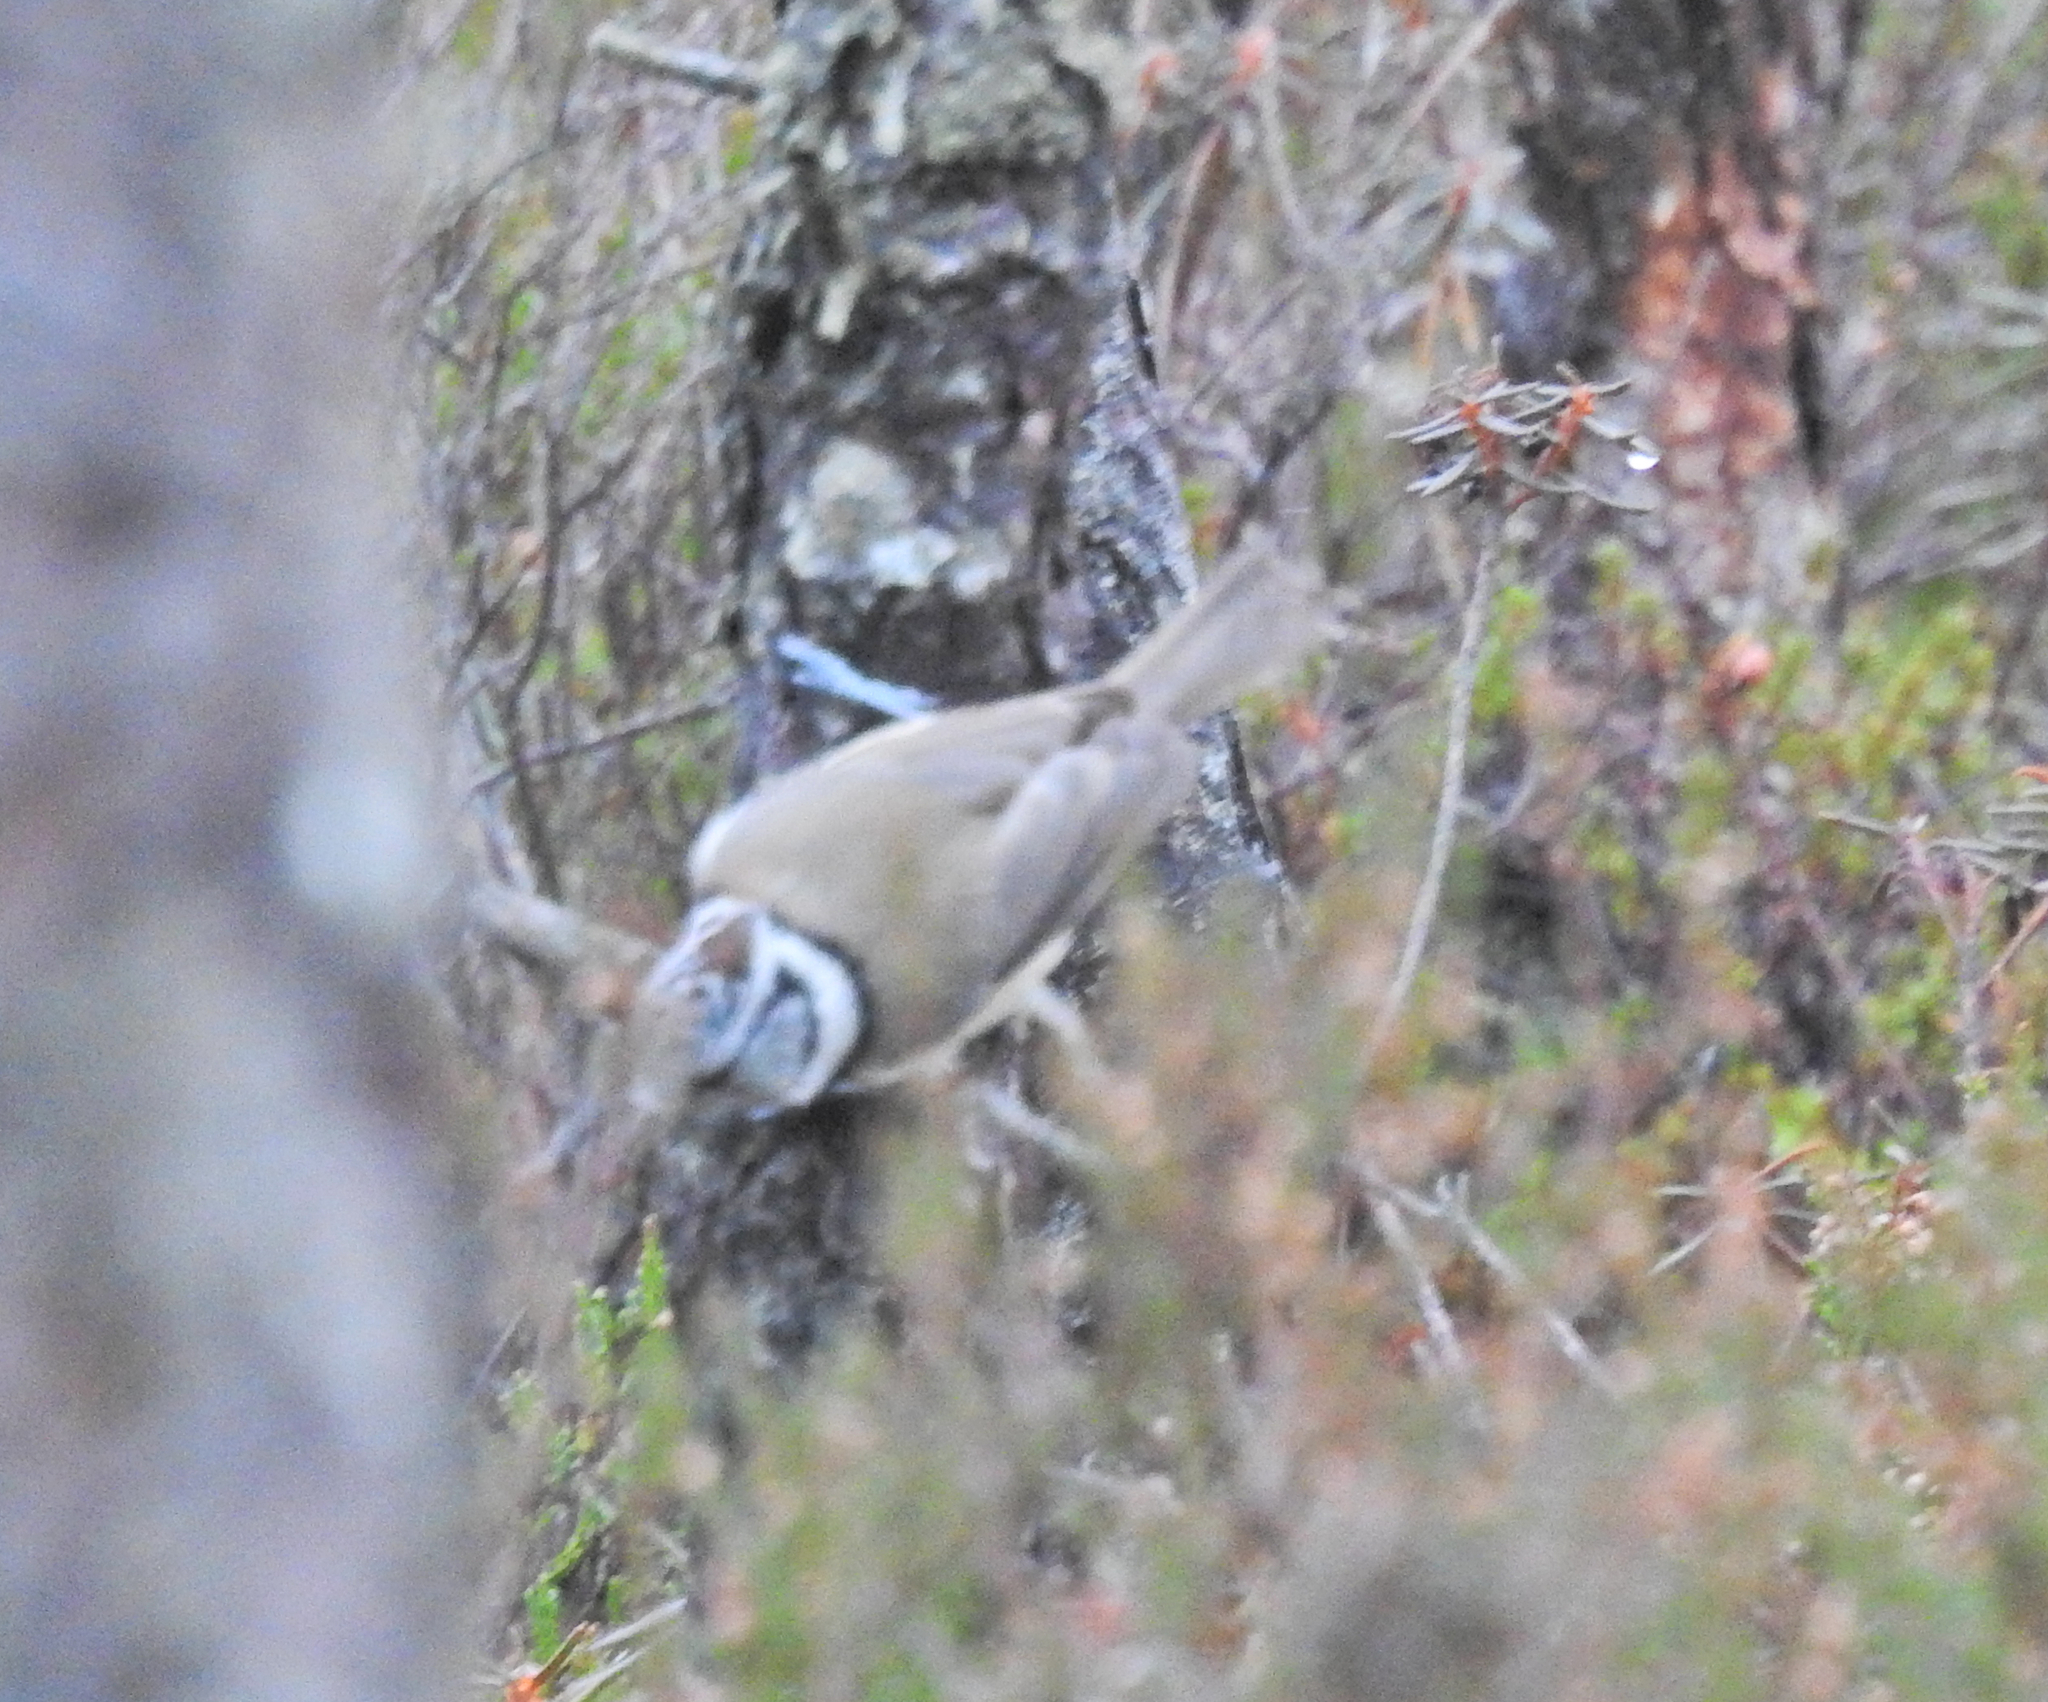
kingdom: Animalia
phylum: Chordata
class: Aves
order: Passeriformes
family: Paridae
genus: Lophophanes
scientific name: Lophophanes cristatus
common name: European crested tit
